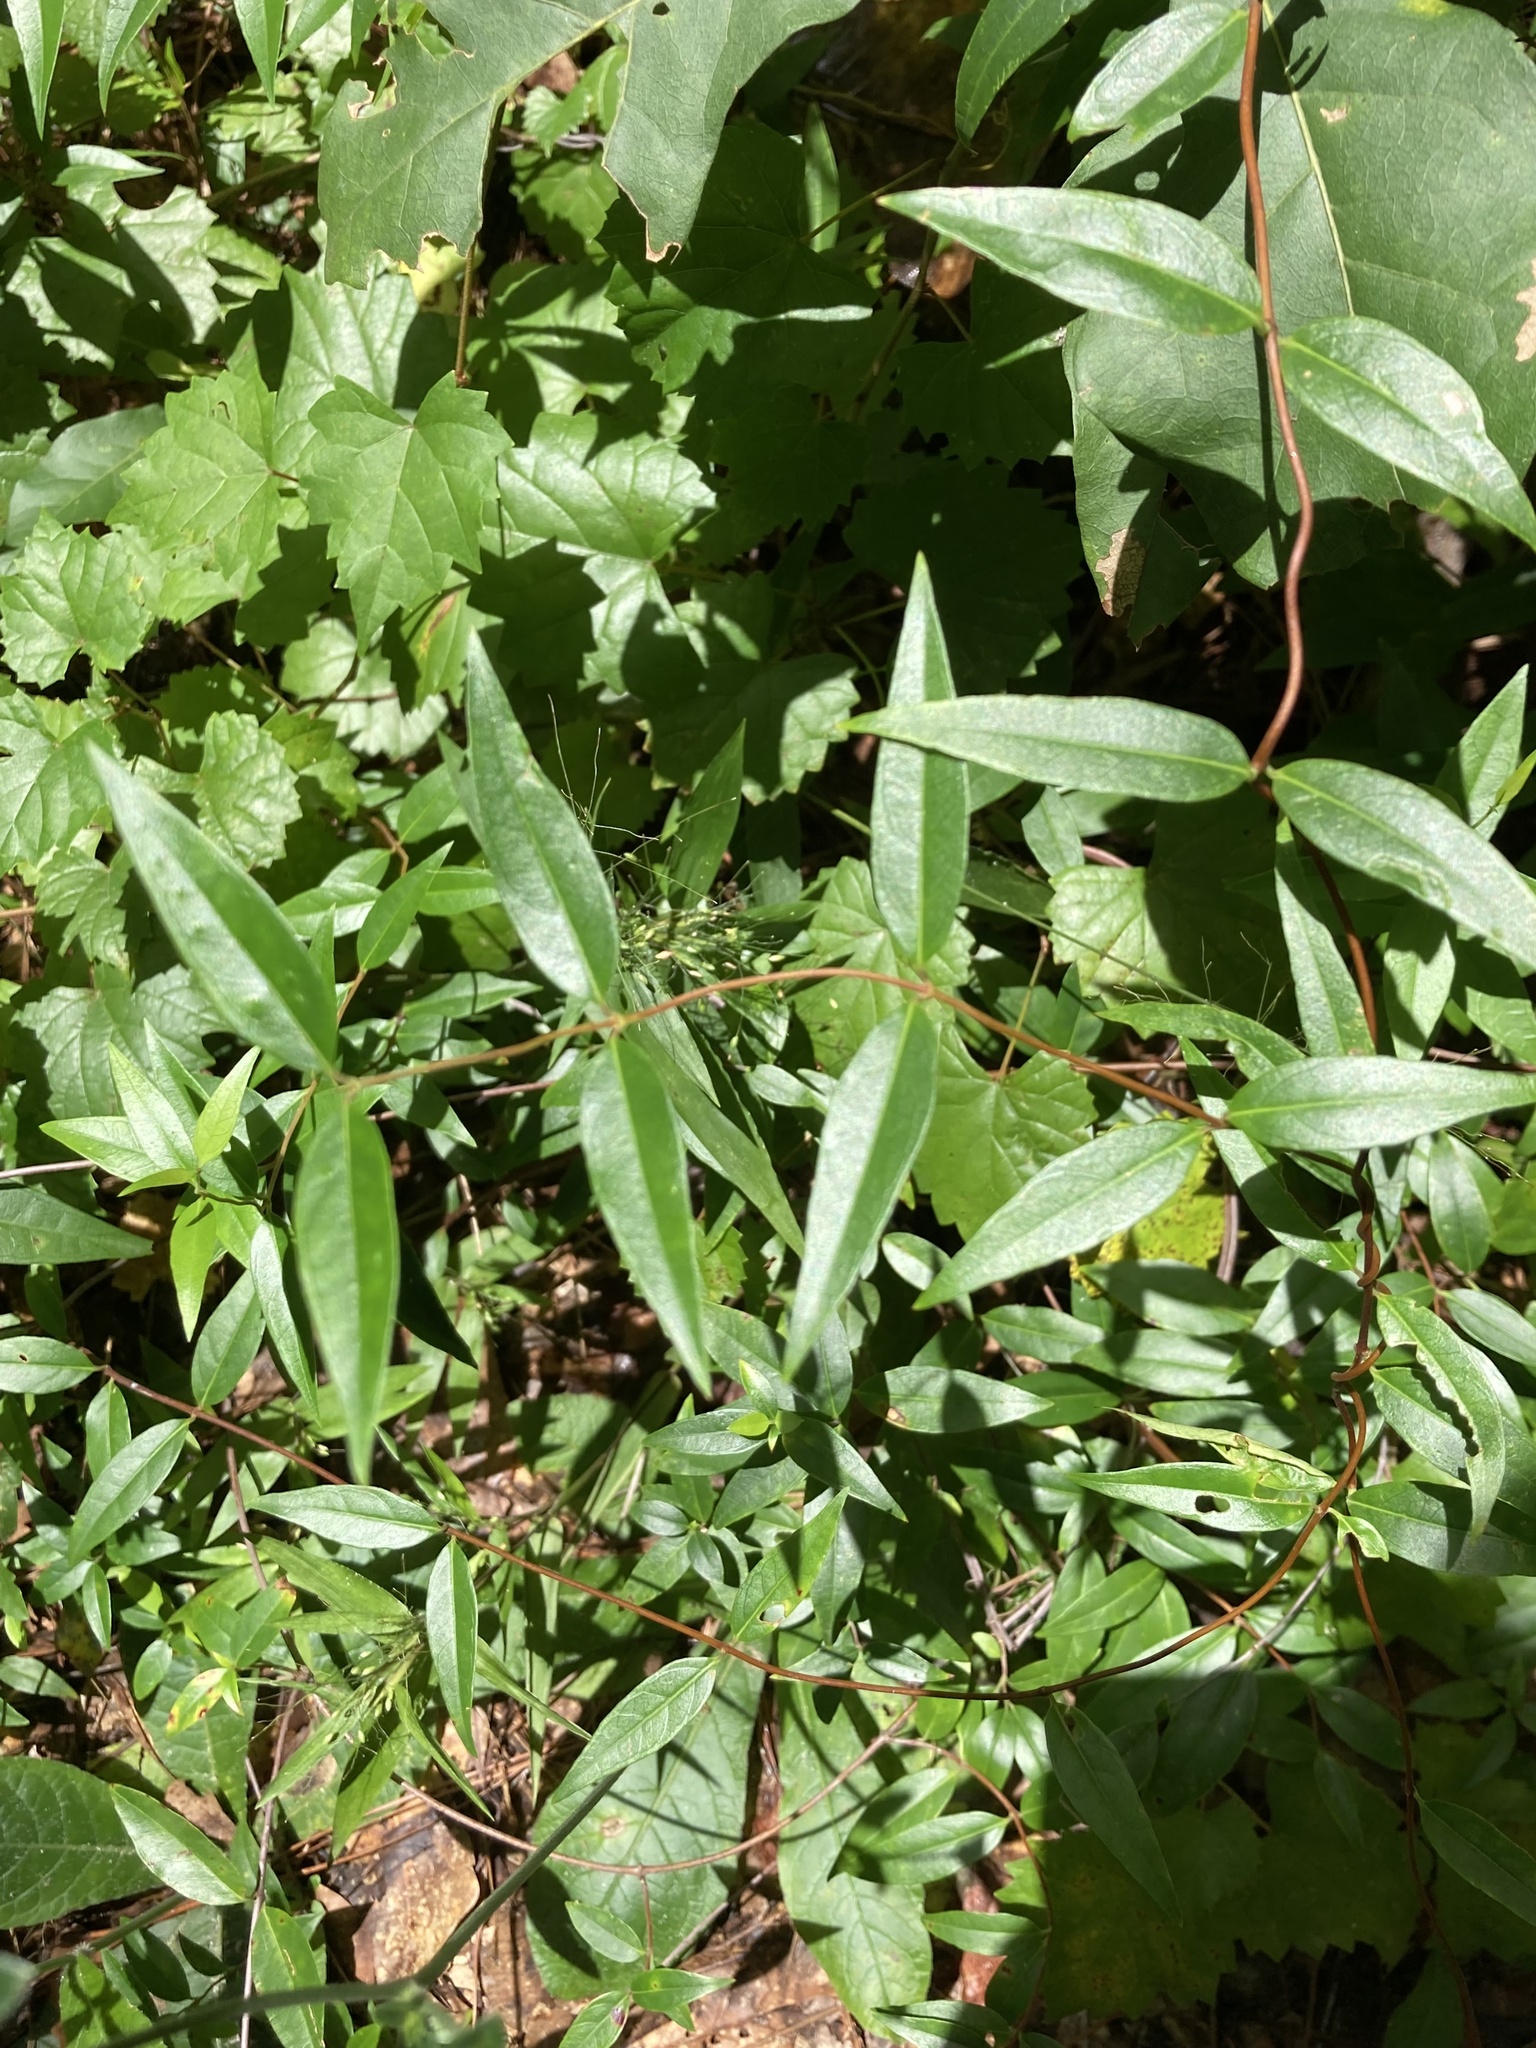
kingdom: Plantae
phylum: Tracheophyta
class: Magnoliopsida
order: Gentianales
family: Gelsemiaceae
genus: Gelsemium
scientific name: Gelsemium sempervirens
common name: Carolina-jasmine
